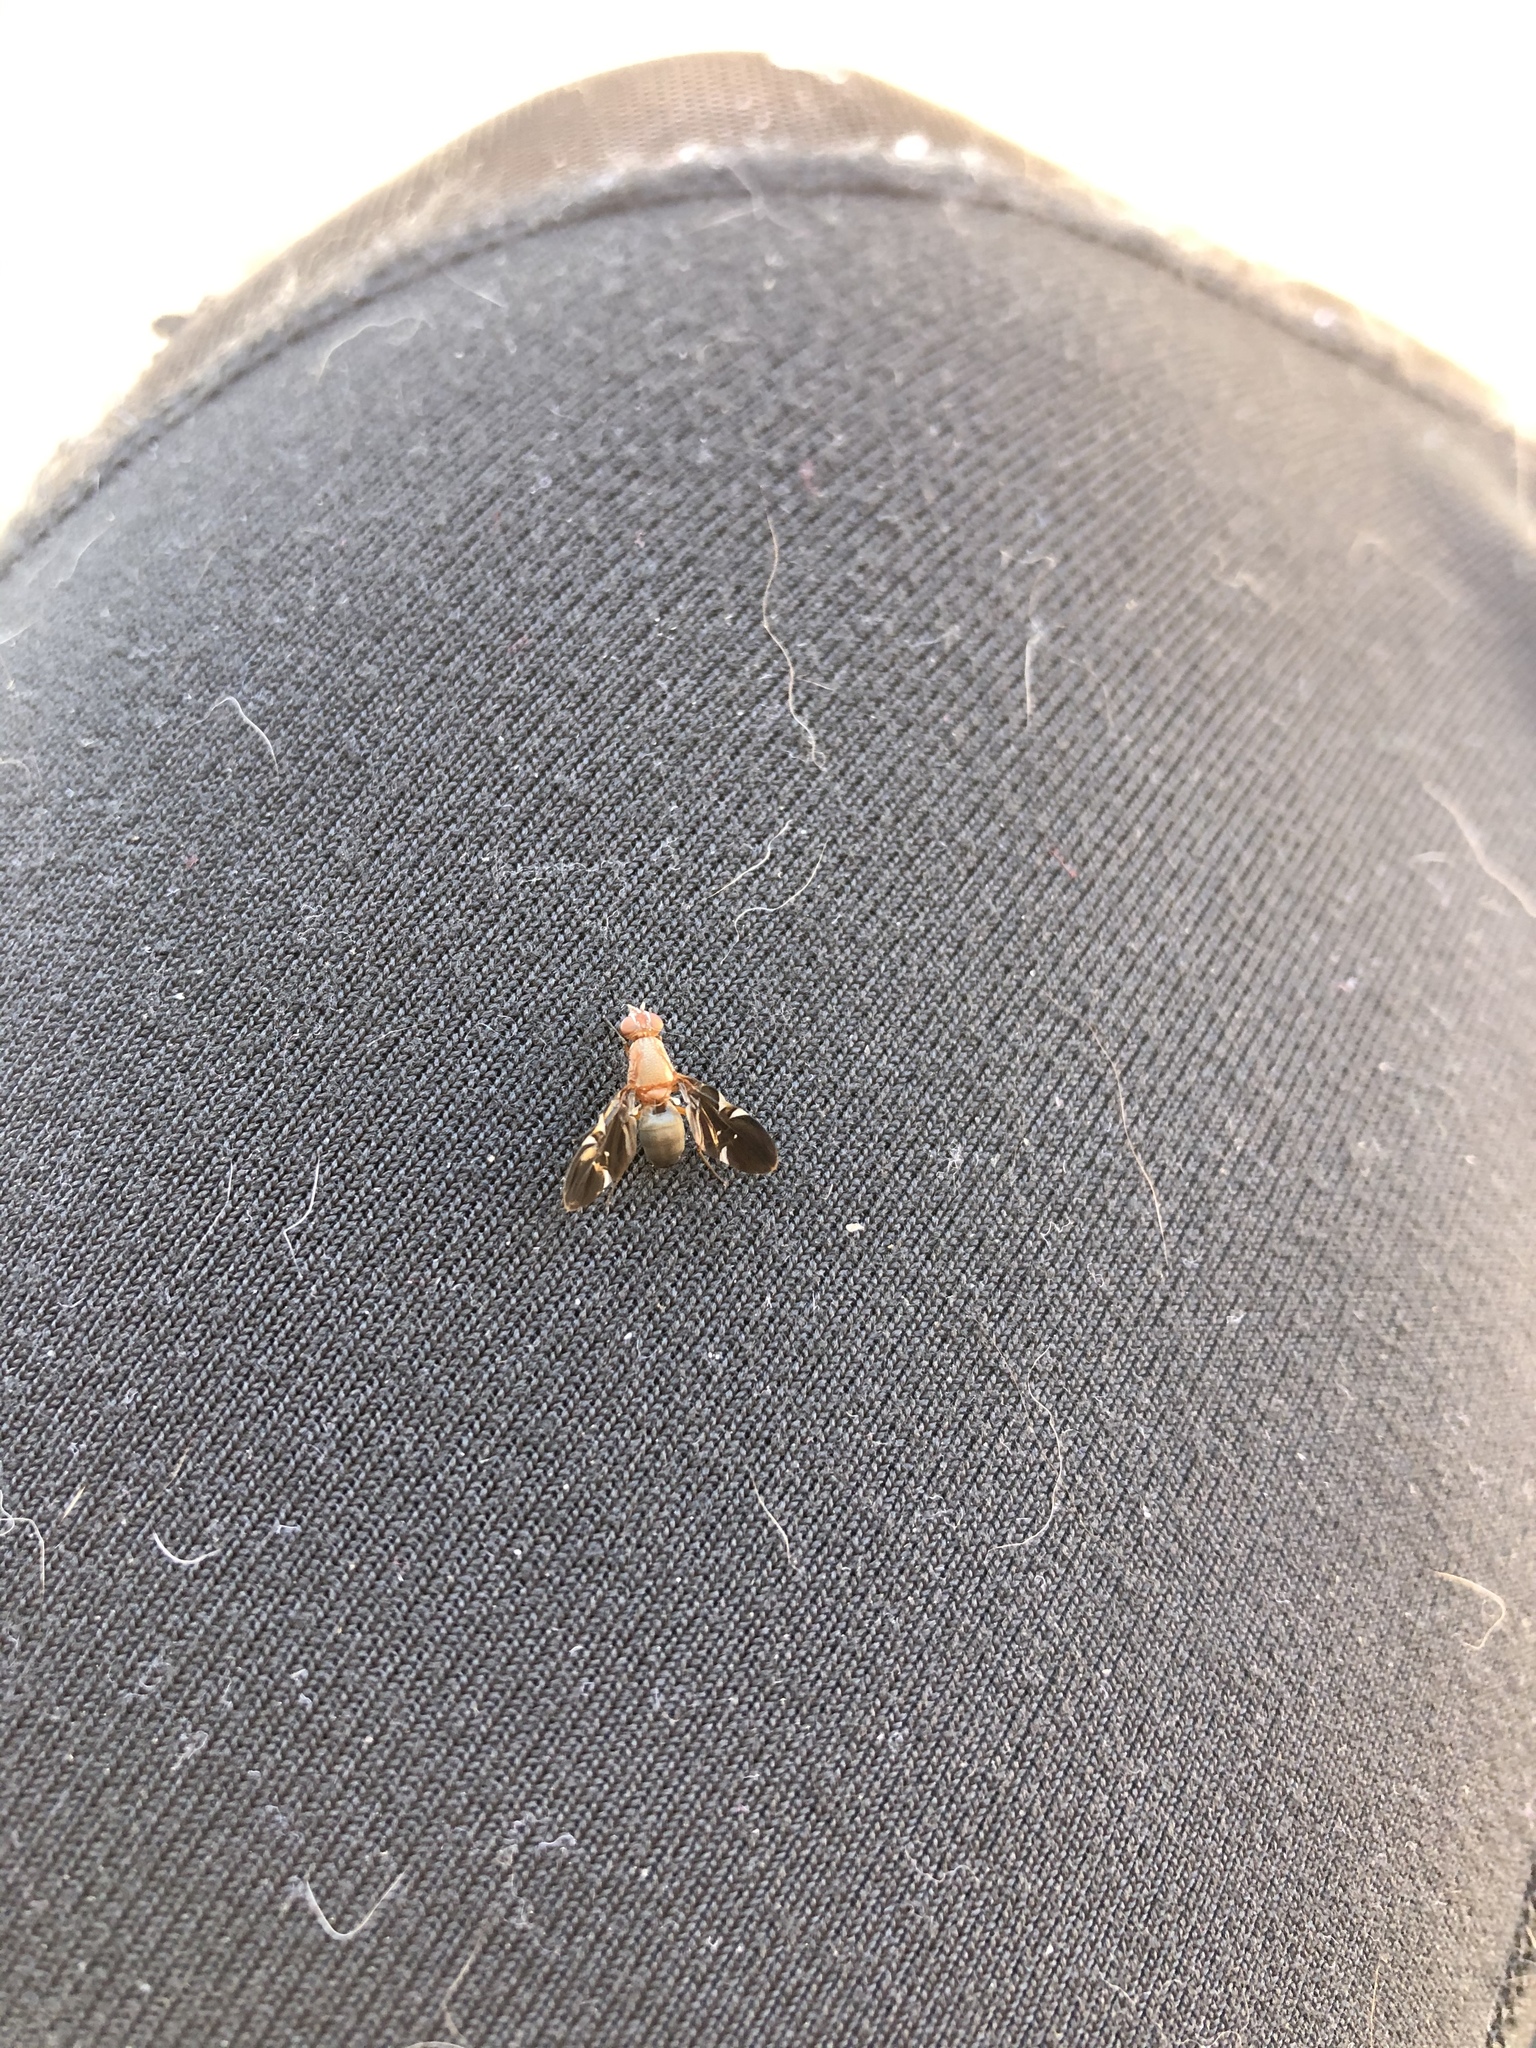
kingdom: Animalia
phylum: Arthropoda
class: Insecta
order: Diptera
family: Ulidiidae
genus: Delphinia
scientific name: Delphinia picta
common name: Common picture-winged fly
